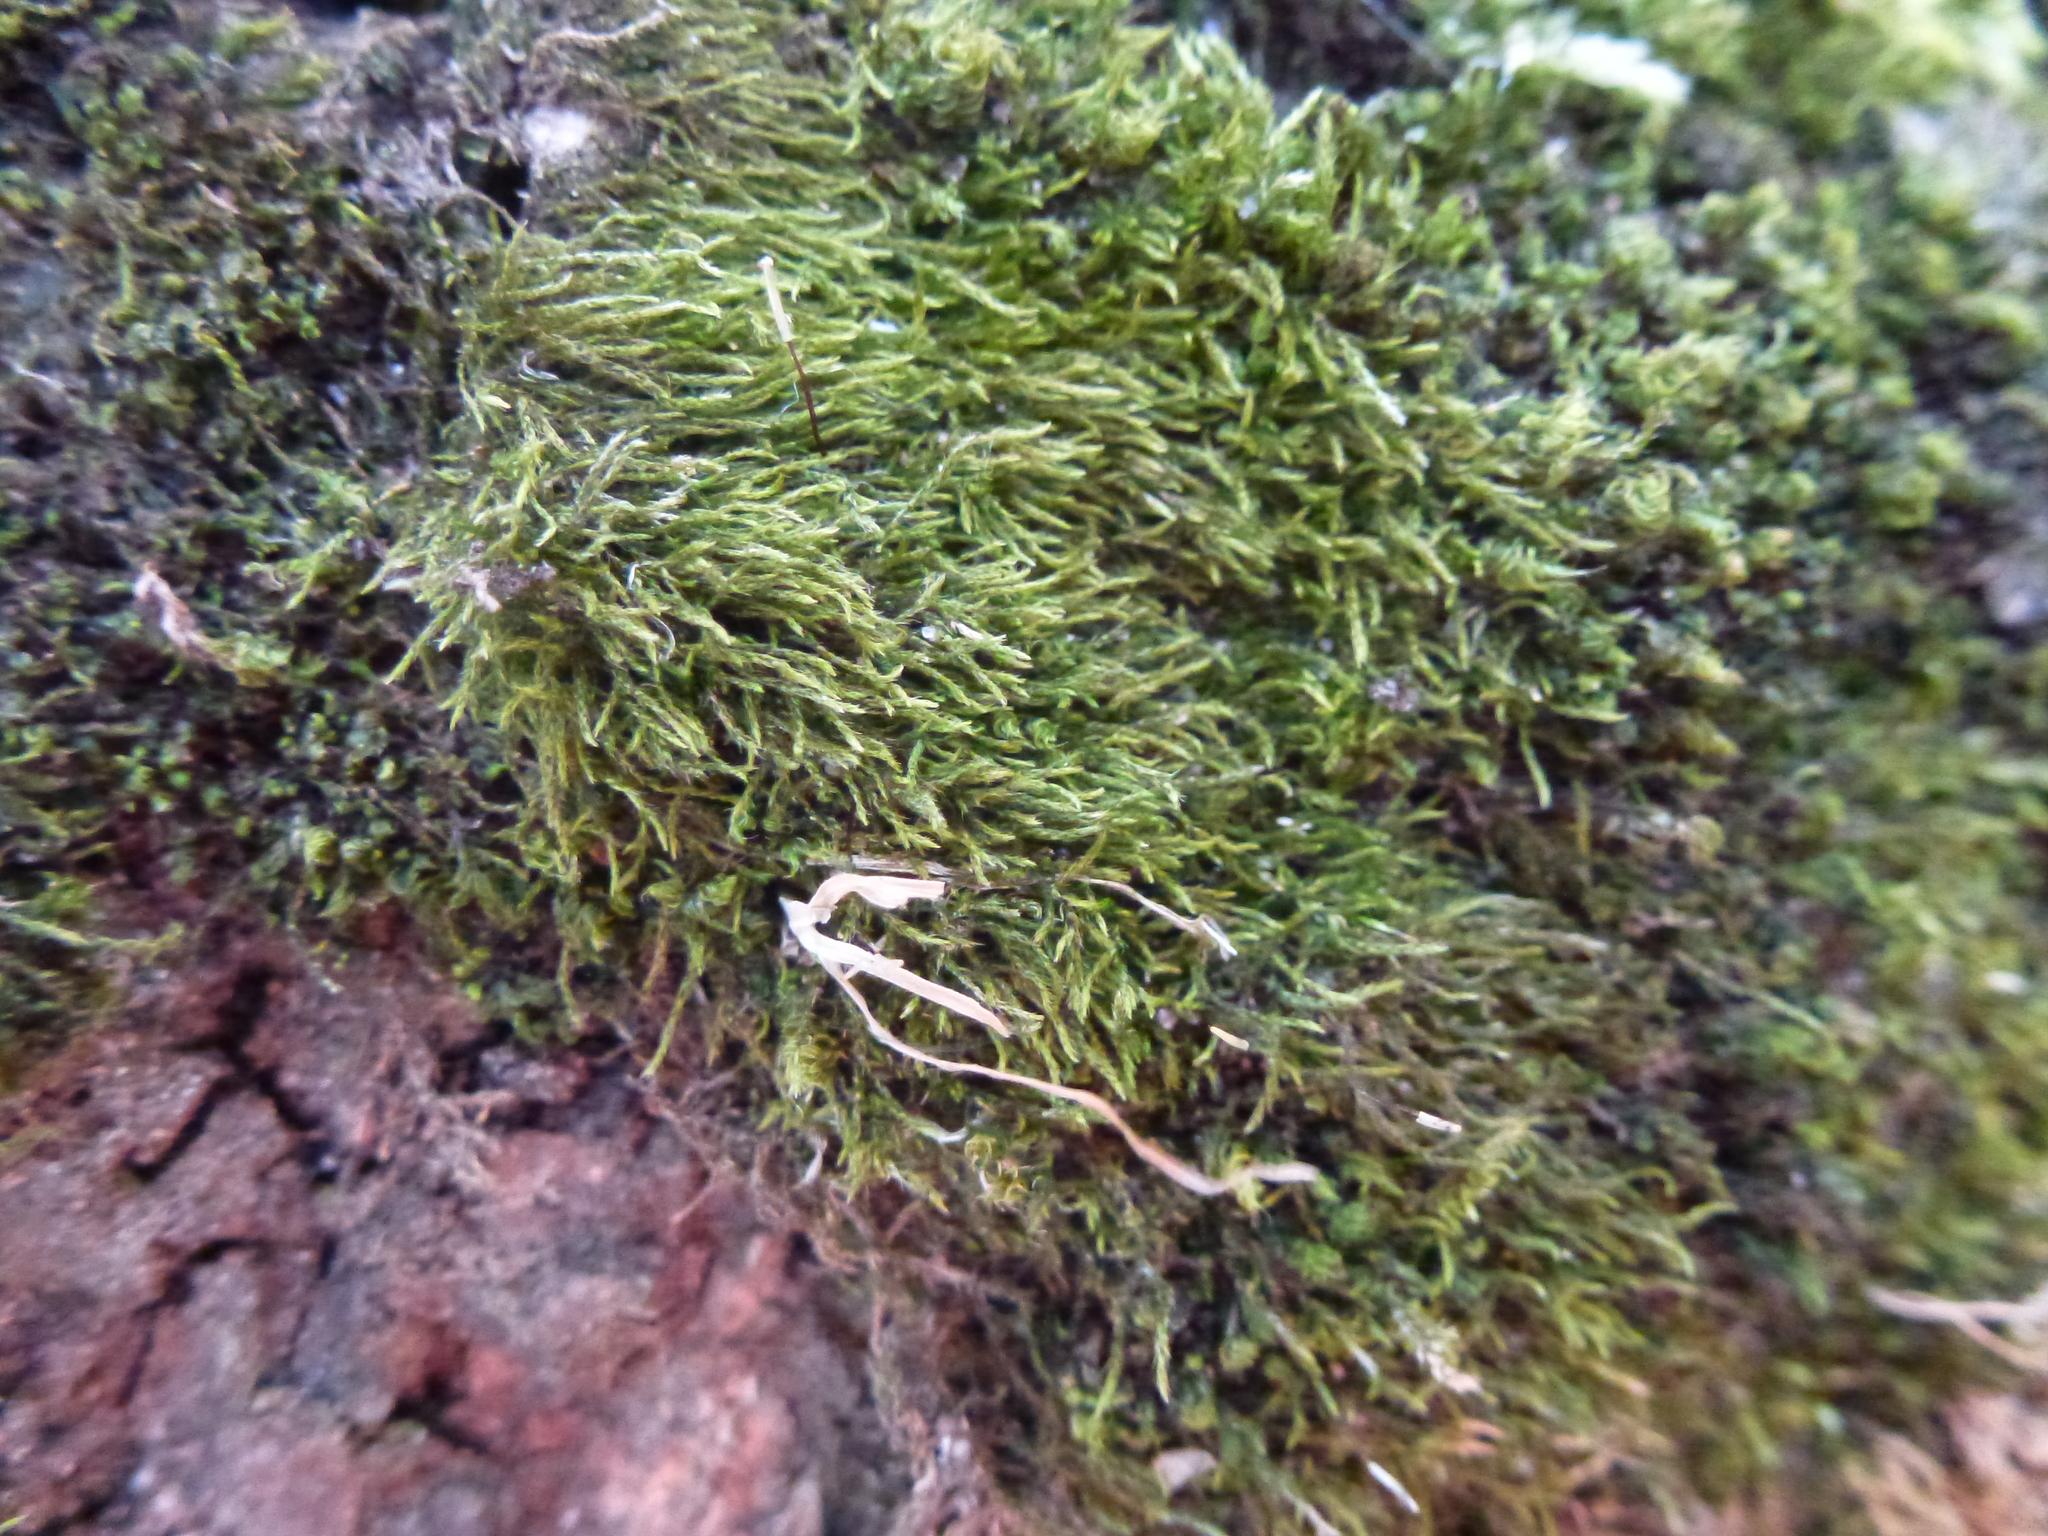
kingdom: Plantae
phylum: Bryophyta
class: Bryopsida
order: Hypnales
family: Amblystegiaceae
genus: Amblystegium
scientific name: Amblystegium serpens
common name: Jurkatzka's feather moss
